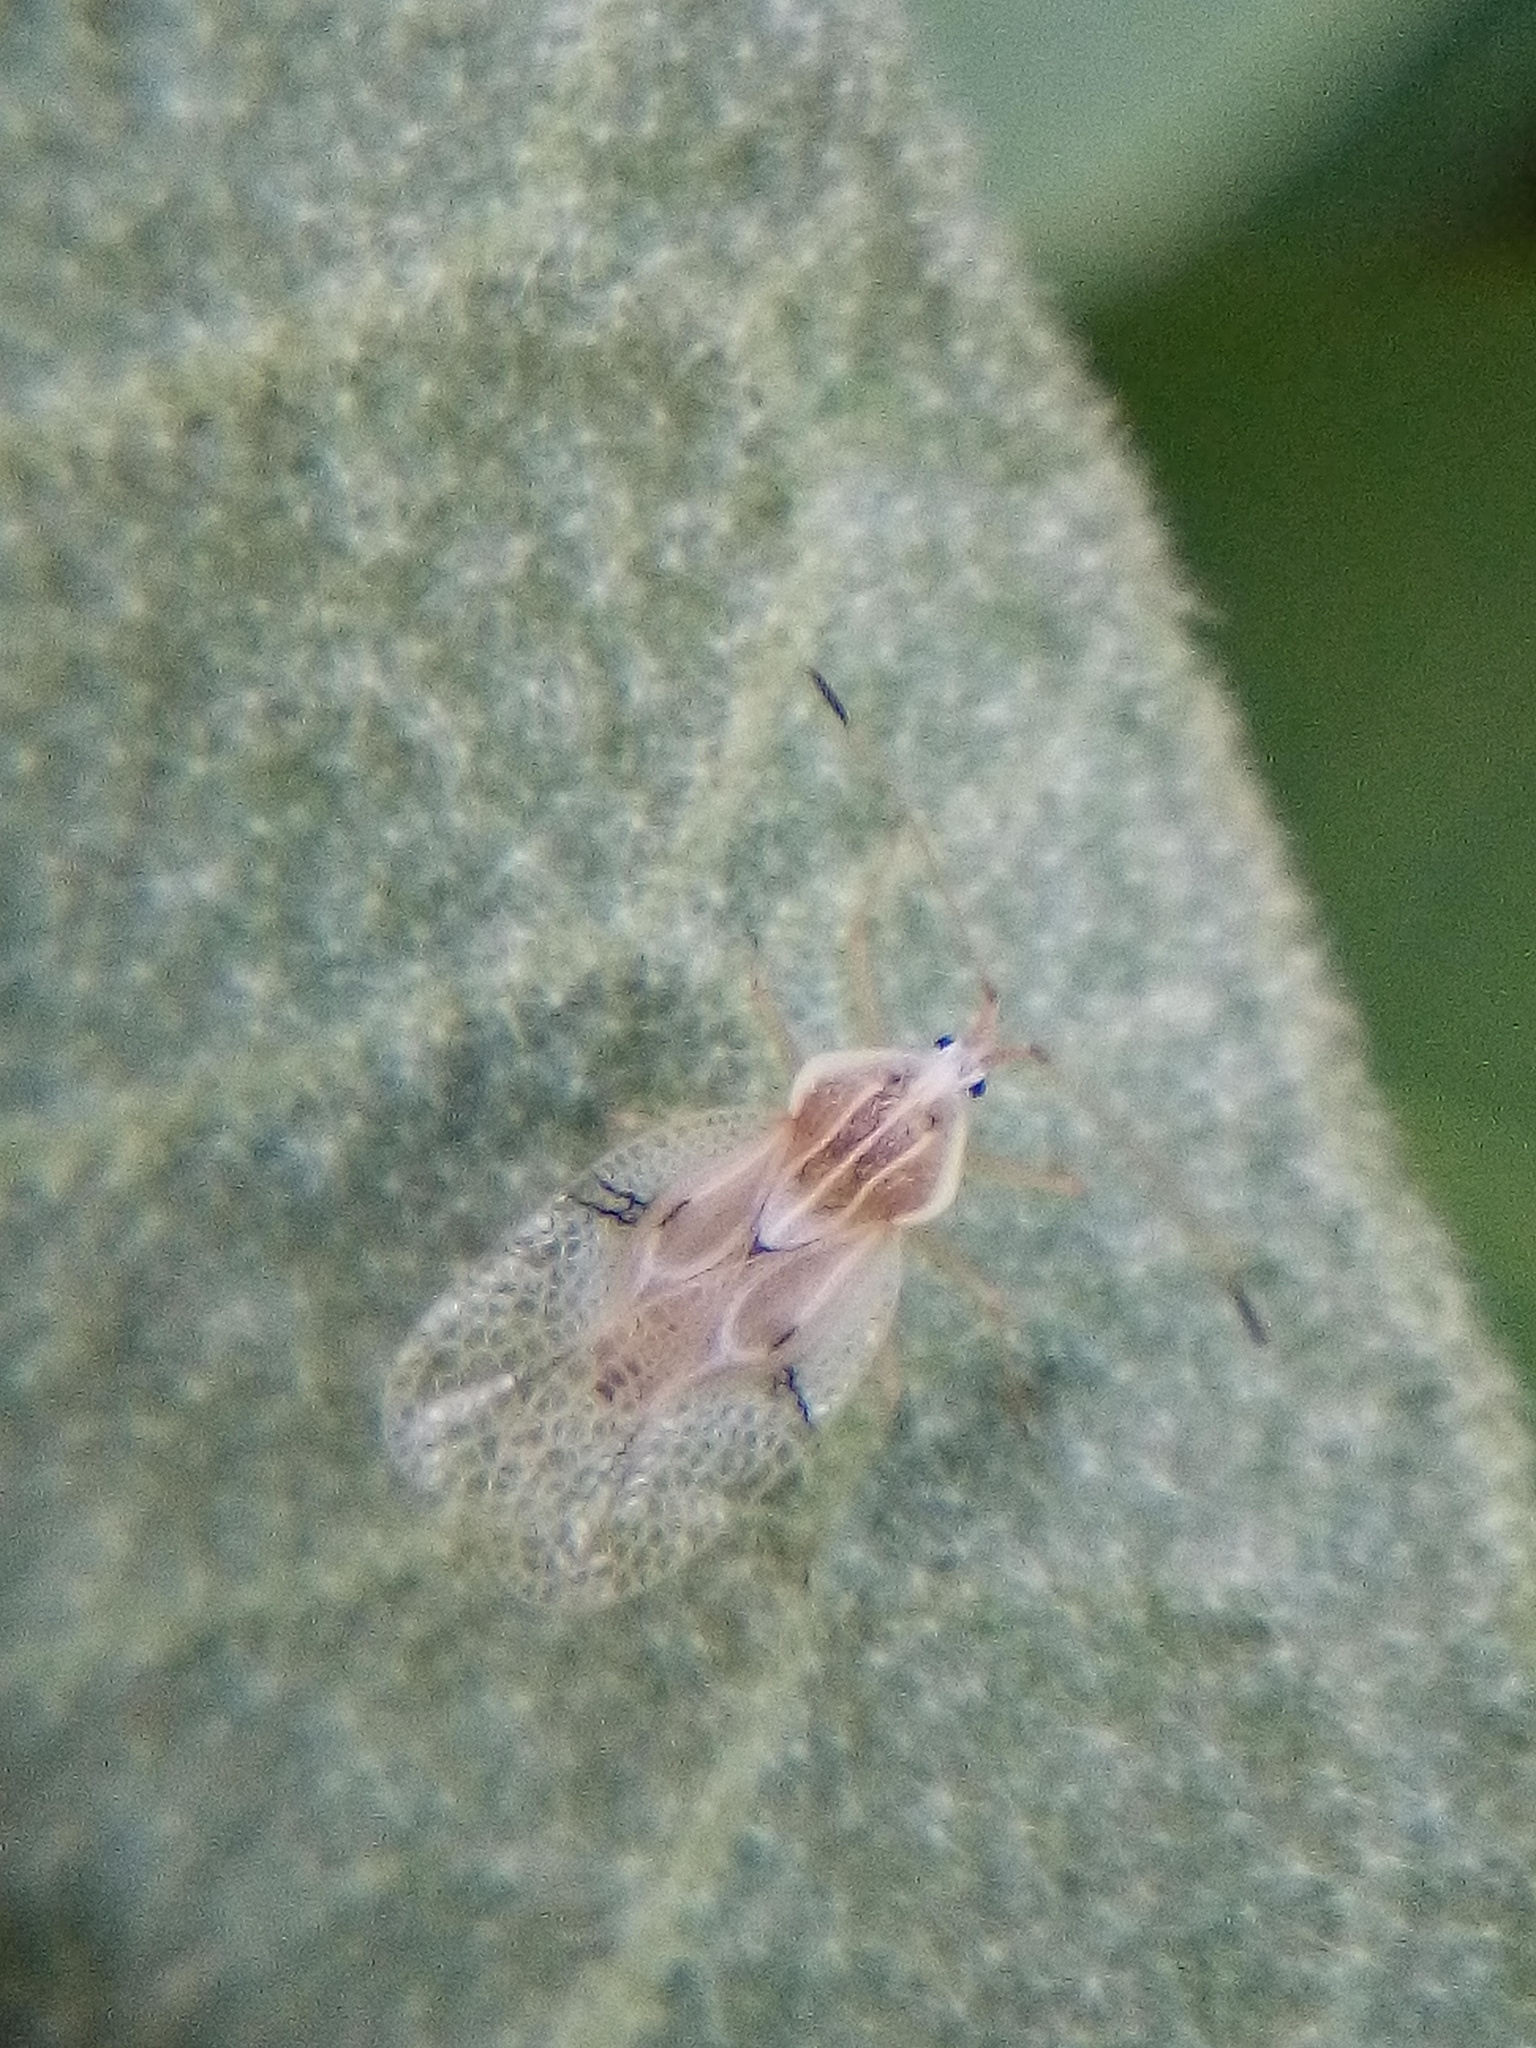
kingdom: Animalia
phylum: Arthropoda
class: Insecta
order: Hemiptera
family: Tingidae
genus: Gargaphia
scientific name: Gargaphia decoris
